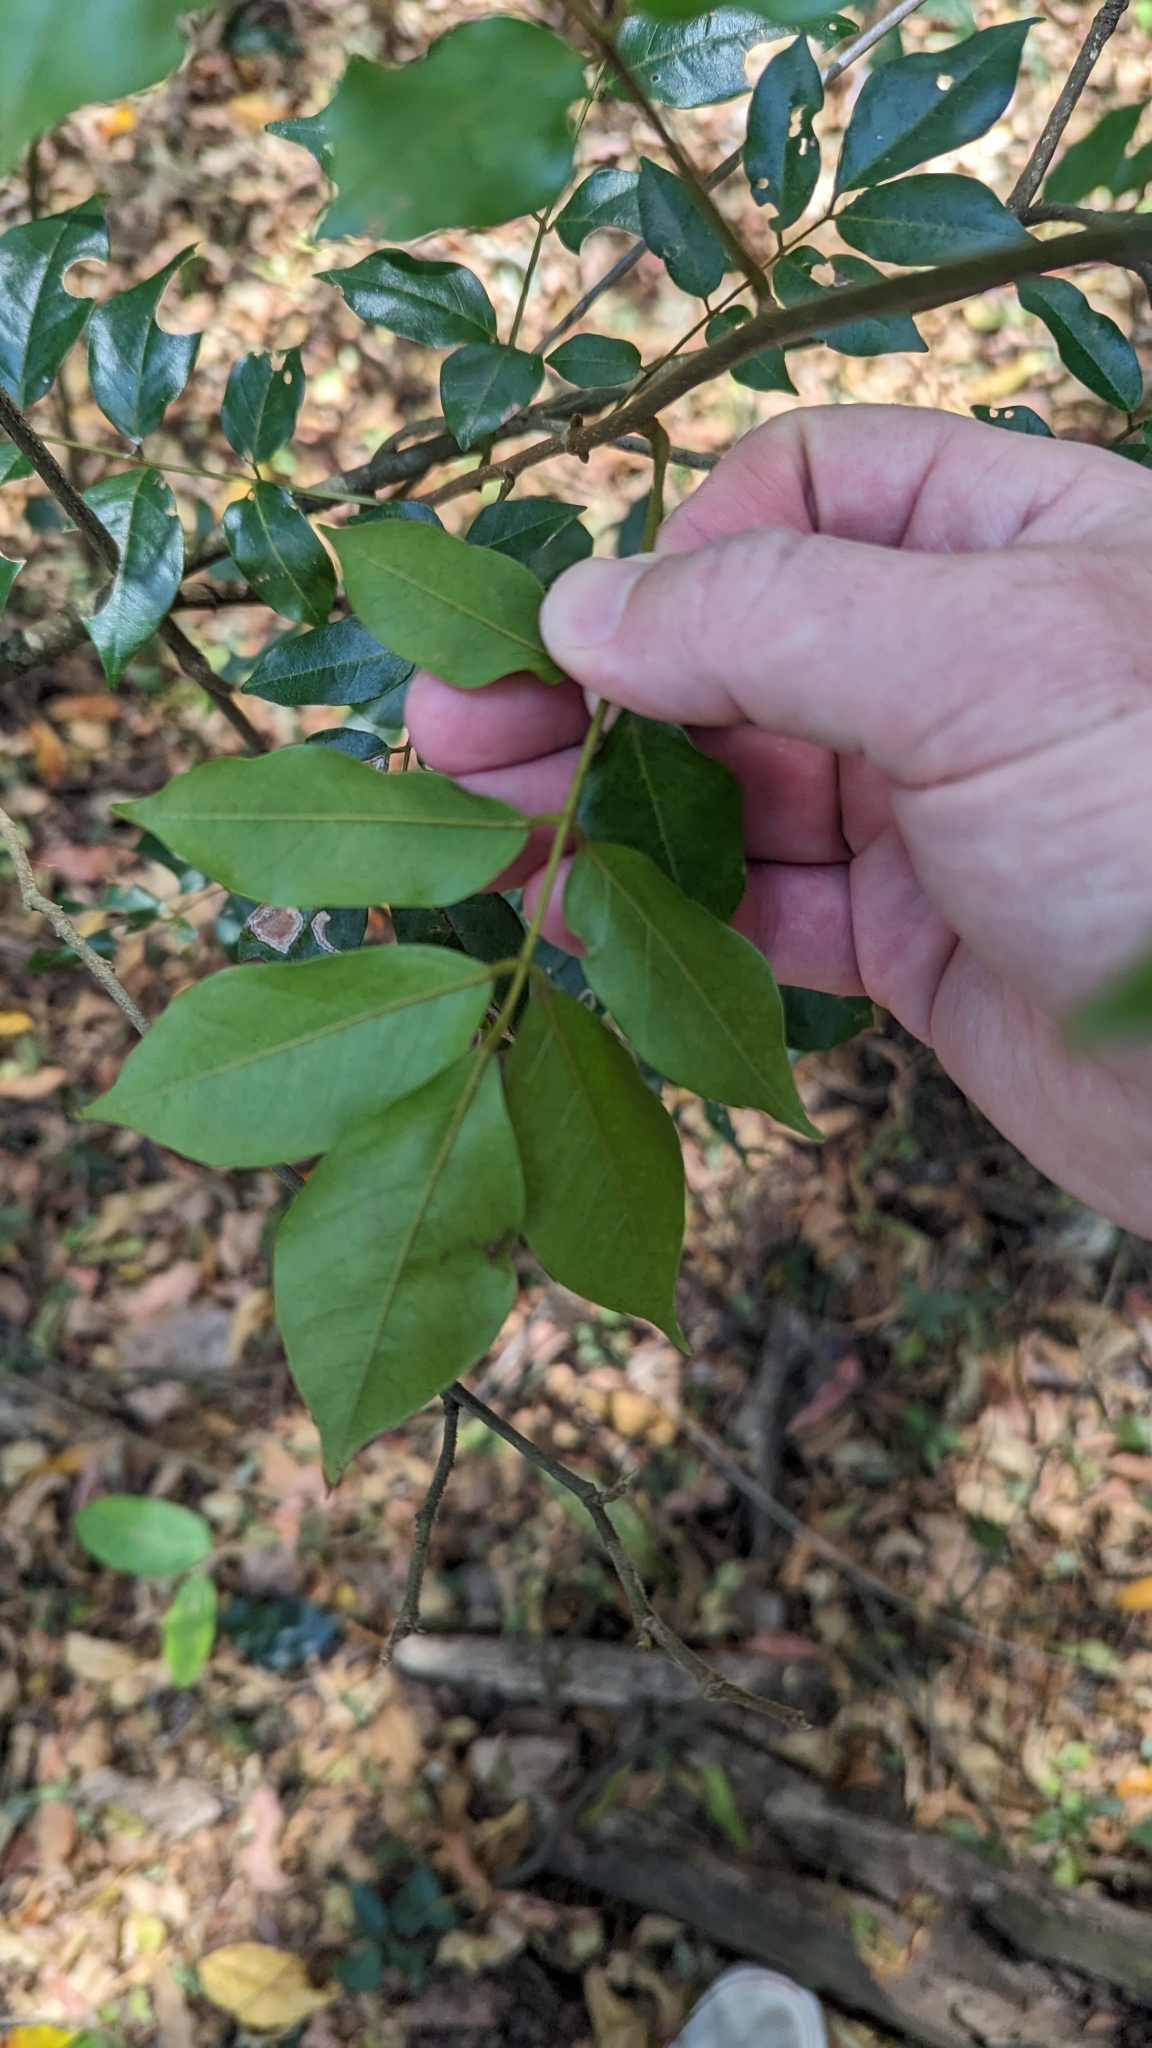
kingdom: Plantae
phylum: Tracheophyta
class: Magnoliopsida
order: Fabales
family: Fabaceae
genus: Austrosteenisia
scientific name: Austrosteenisia blackii
